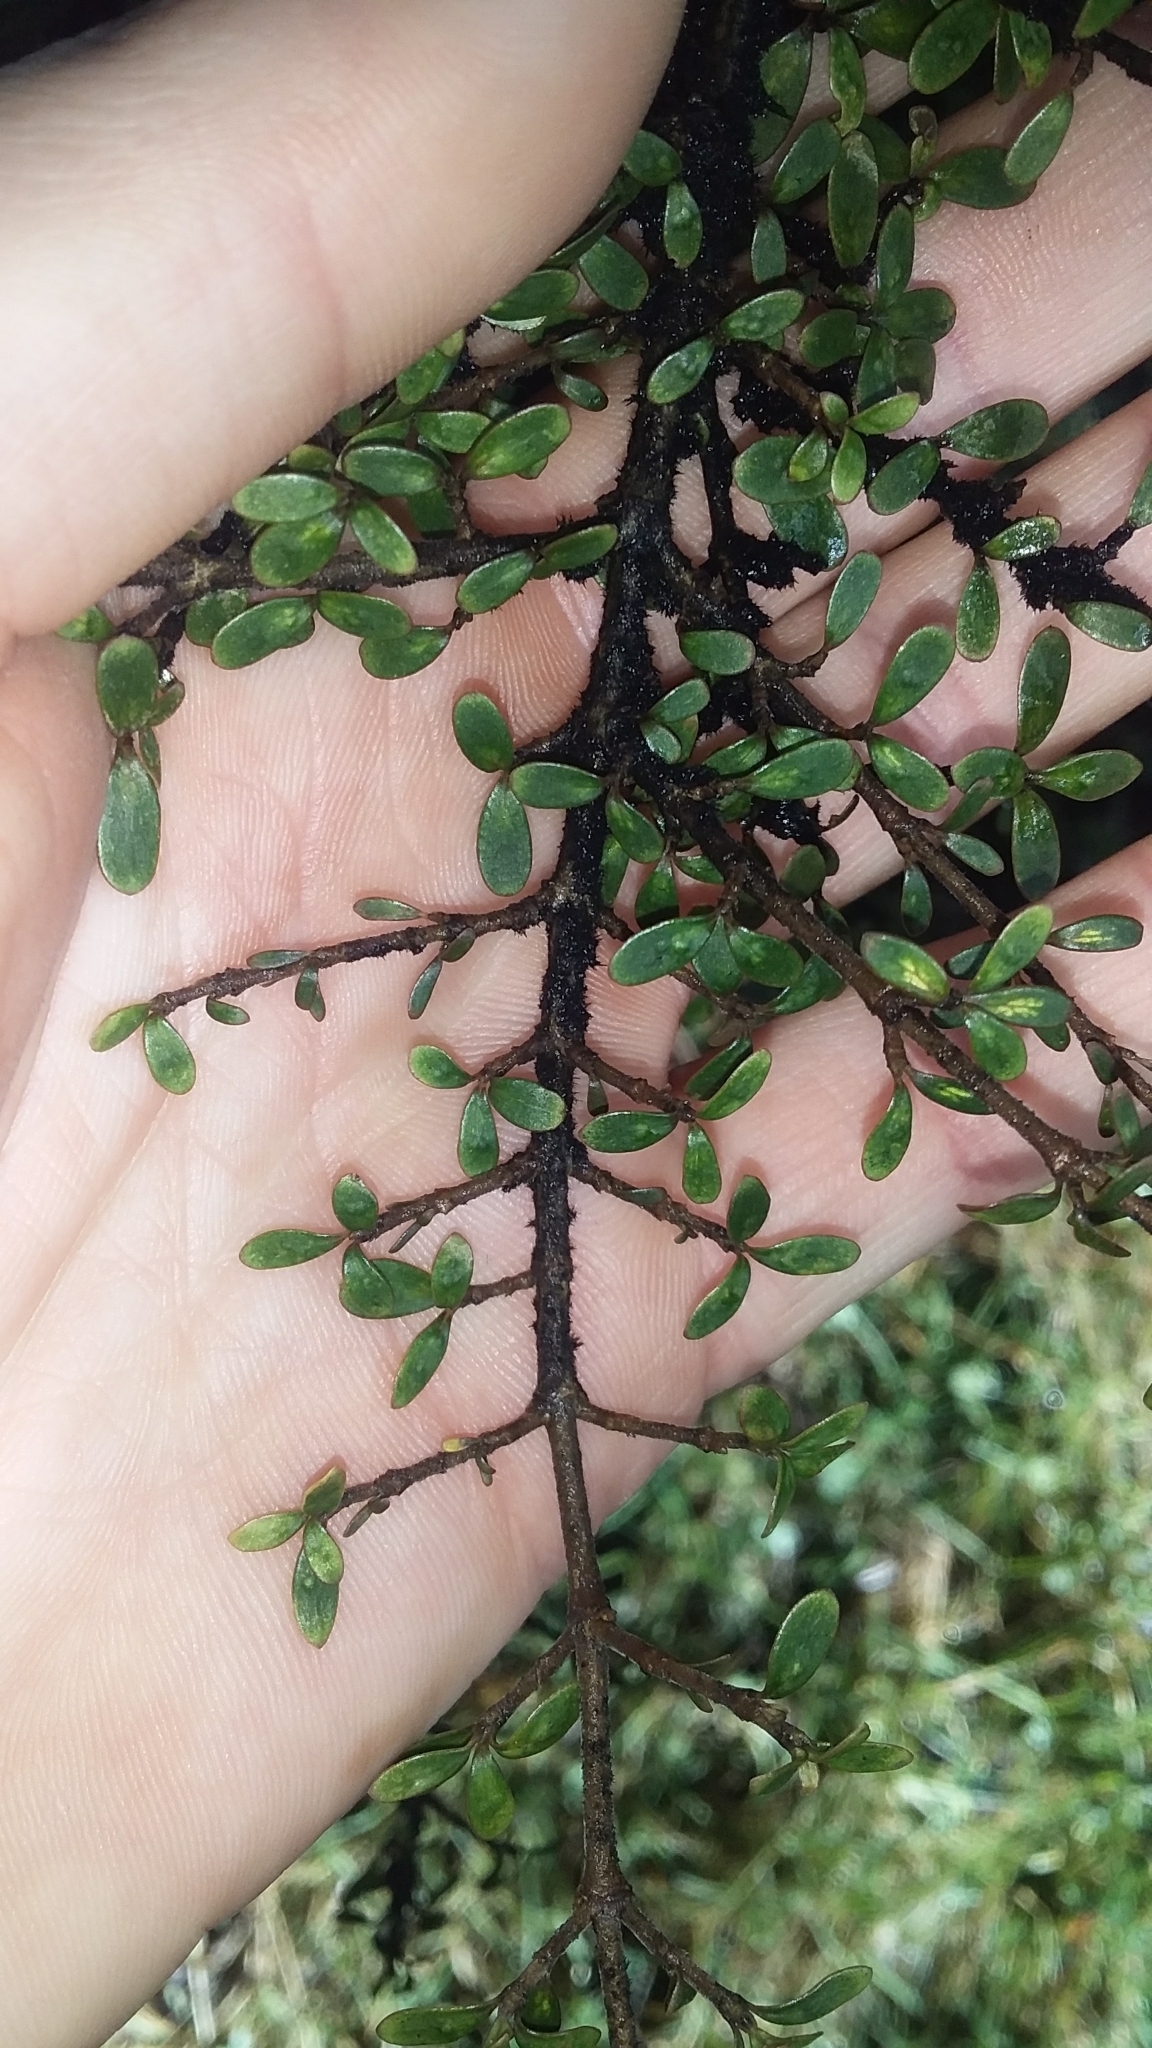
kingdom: Plantae
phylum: Tracheophyta
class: Magnoliopsida
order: Gentianales
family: Rubiaceae
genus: Coprosma
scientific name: Coprosma dumosa
